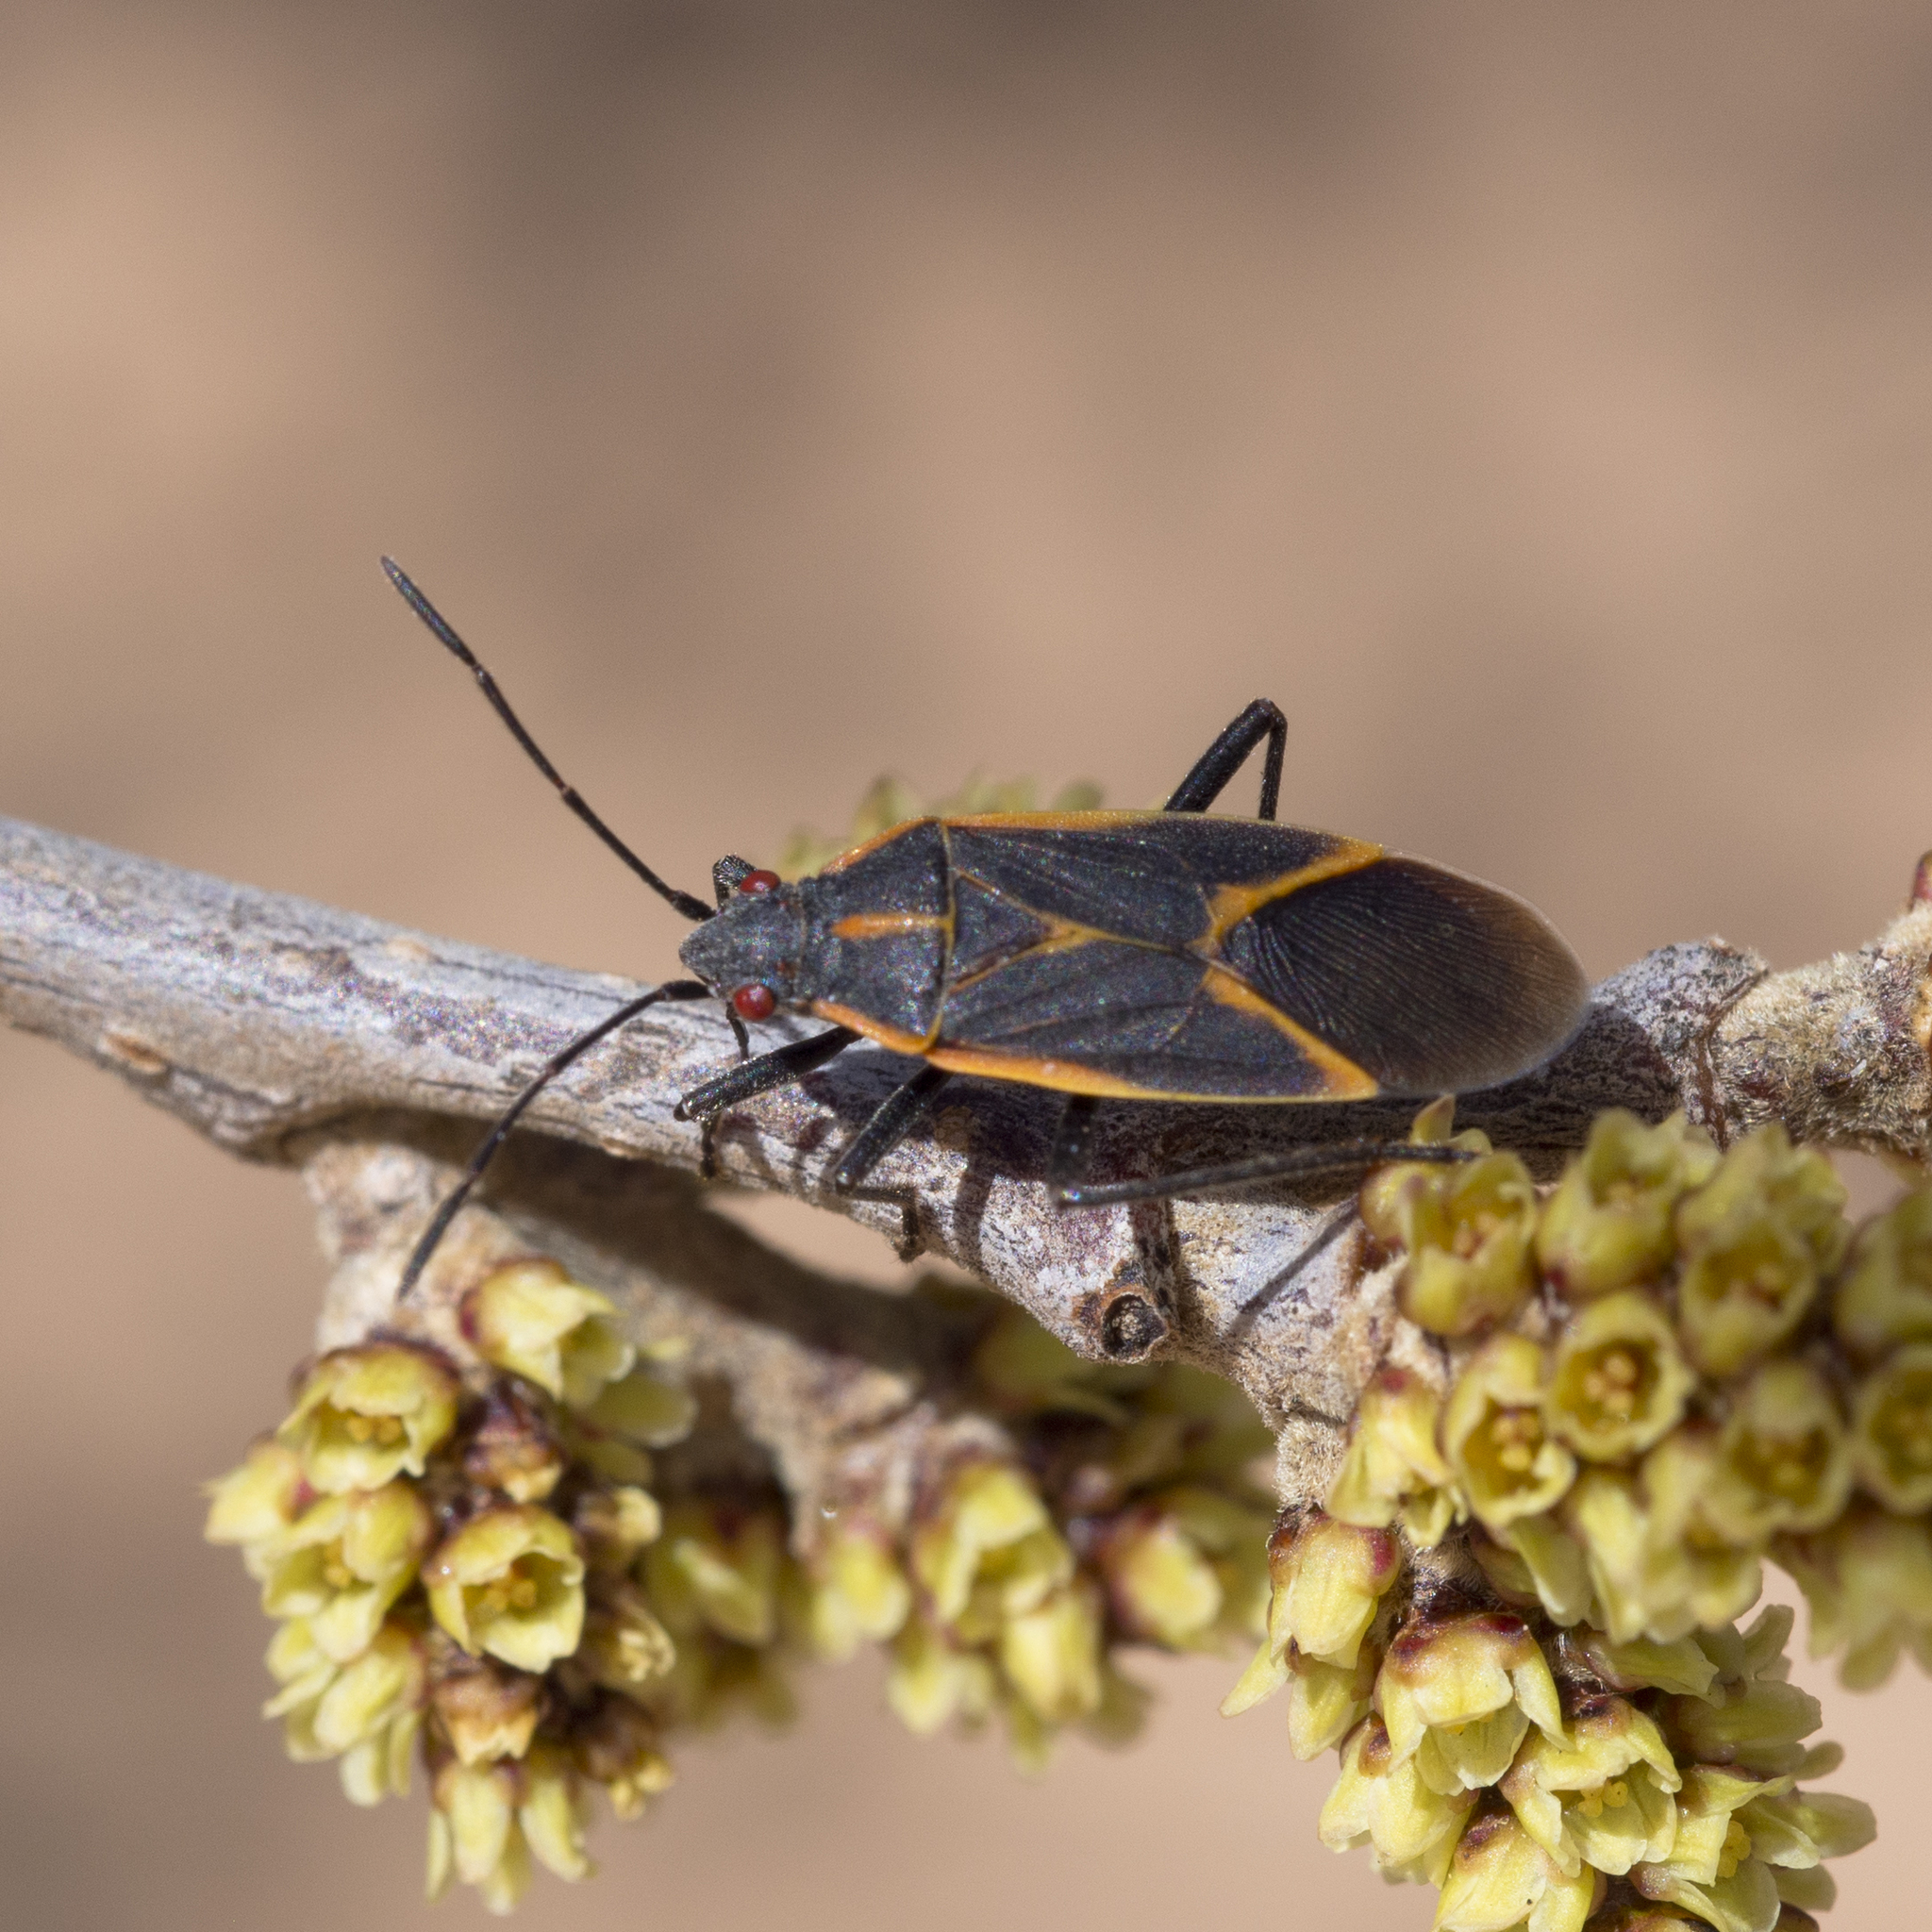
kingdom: Animalia
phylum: Arthropoda
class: Insecta
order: Hemiptera
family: Rhopalidae
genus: Boisea
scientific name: Boisea trivittata
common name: Boxelder bug
